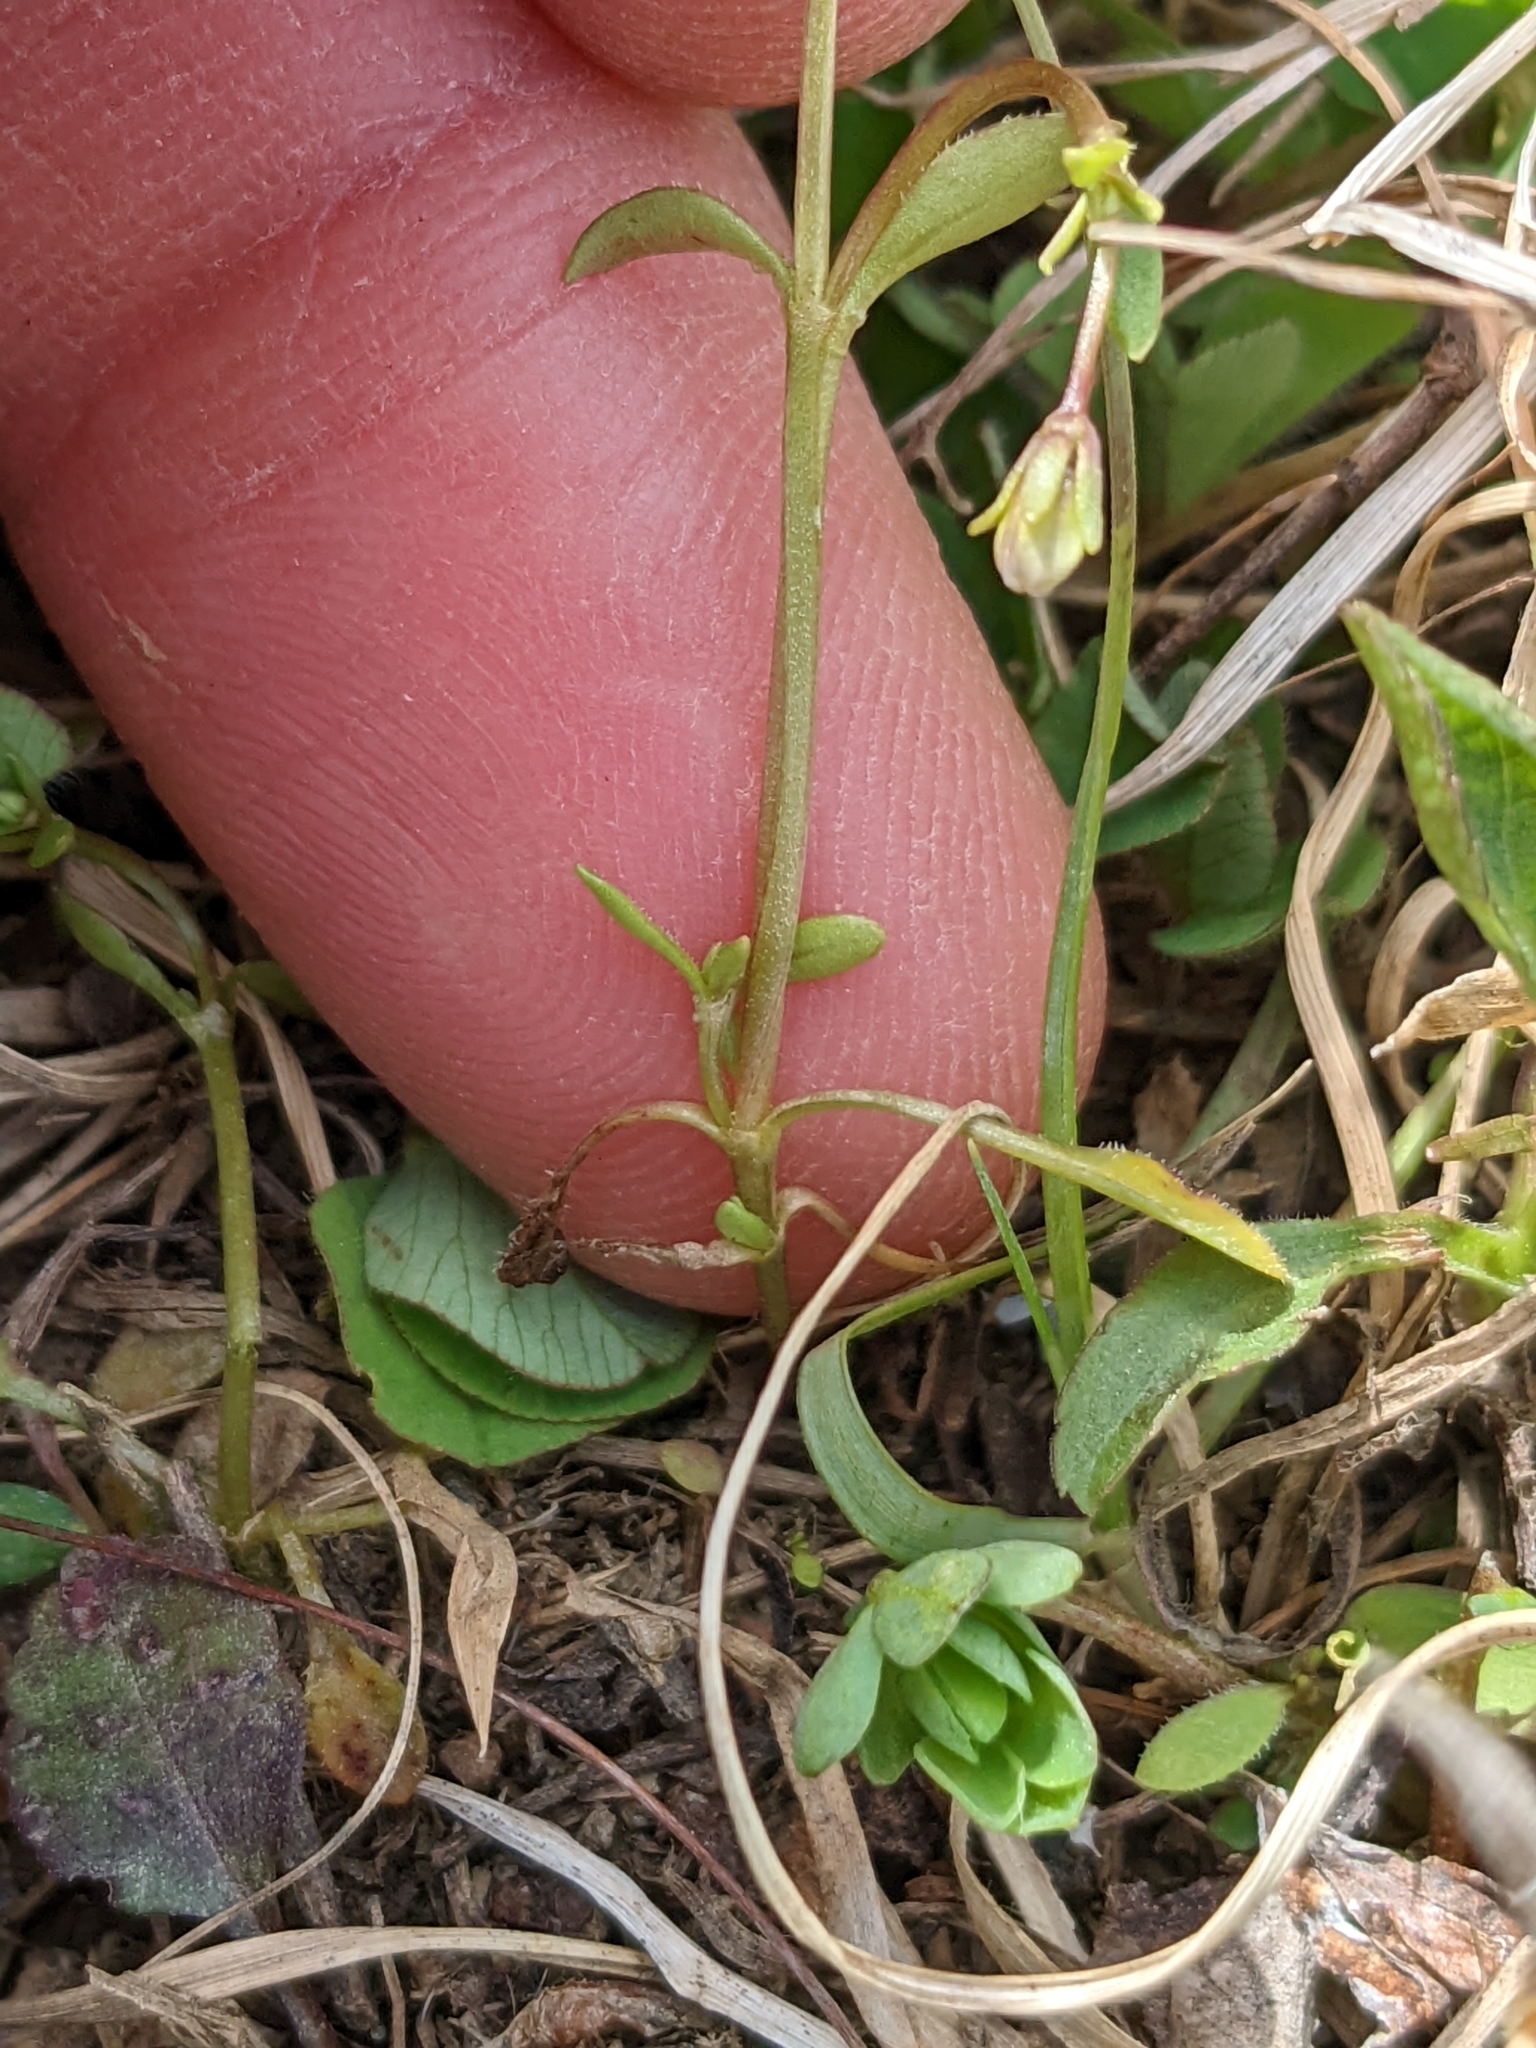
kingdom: Plantae
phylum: Tracheophyta
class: Magnoliopsida
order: Gentianales
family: Rubiaceae
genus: Houstonia
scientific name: Houstonia caerulea
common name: Bluets
